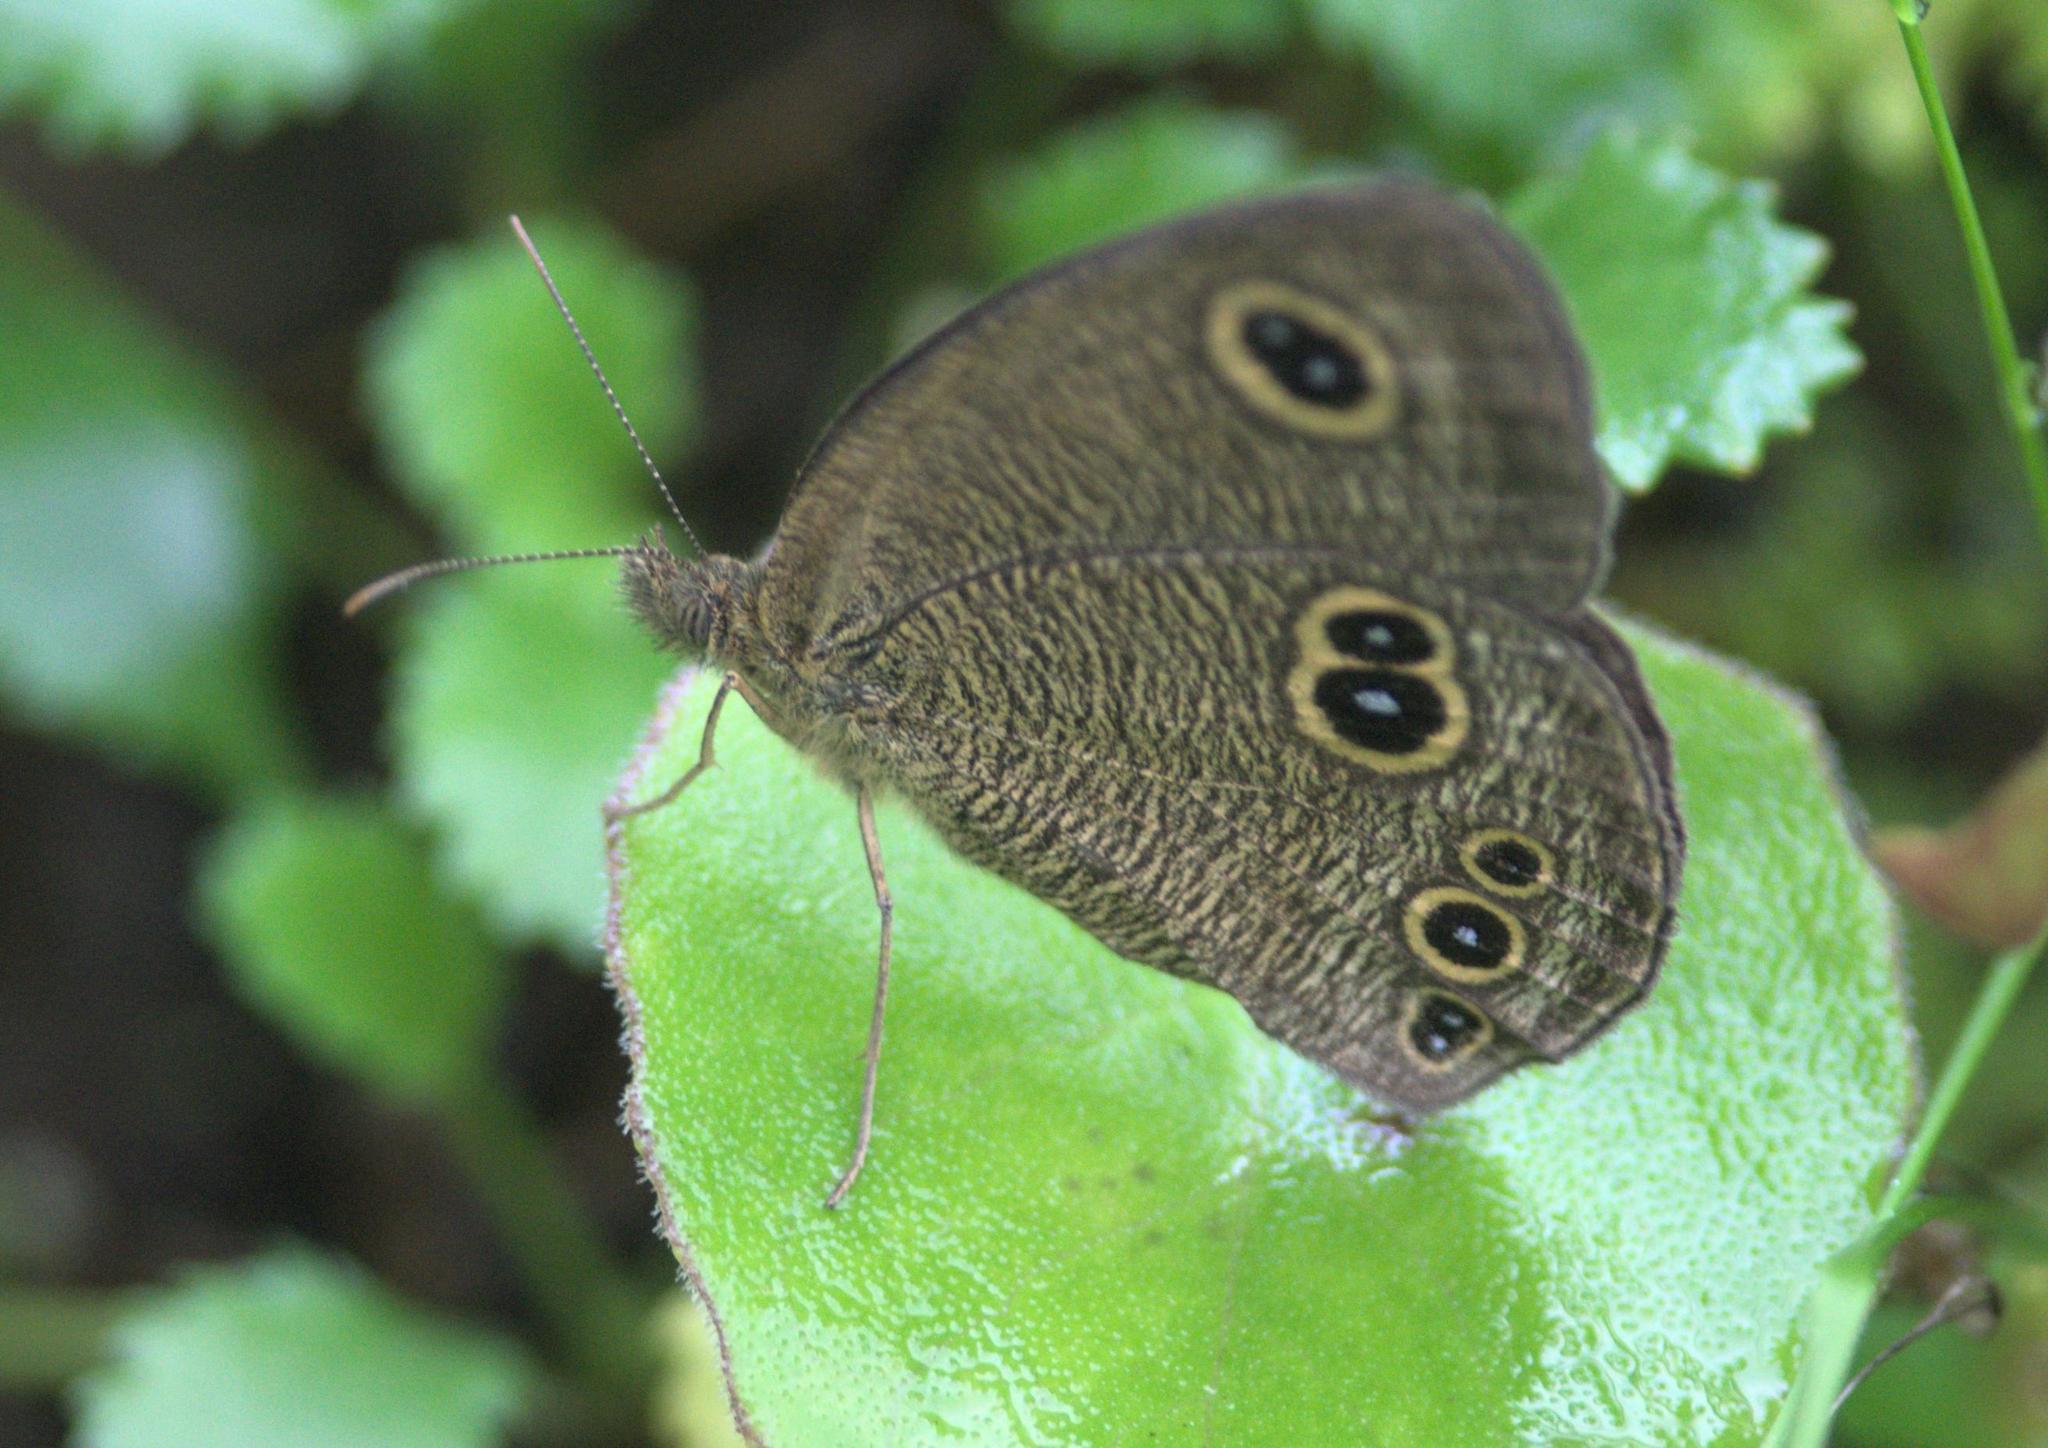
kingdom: Animalia
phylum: Arthropoda
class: Insecta
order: Lepidoptera
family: Nymphalidae
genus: Ypthima
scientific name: Ypthima nikaea
